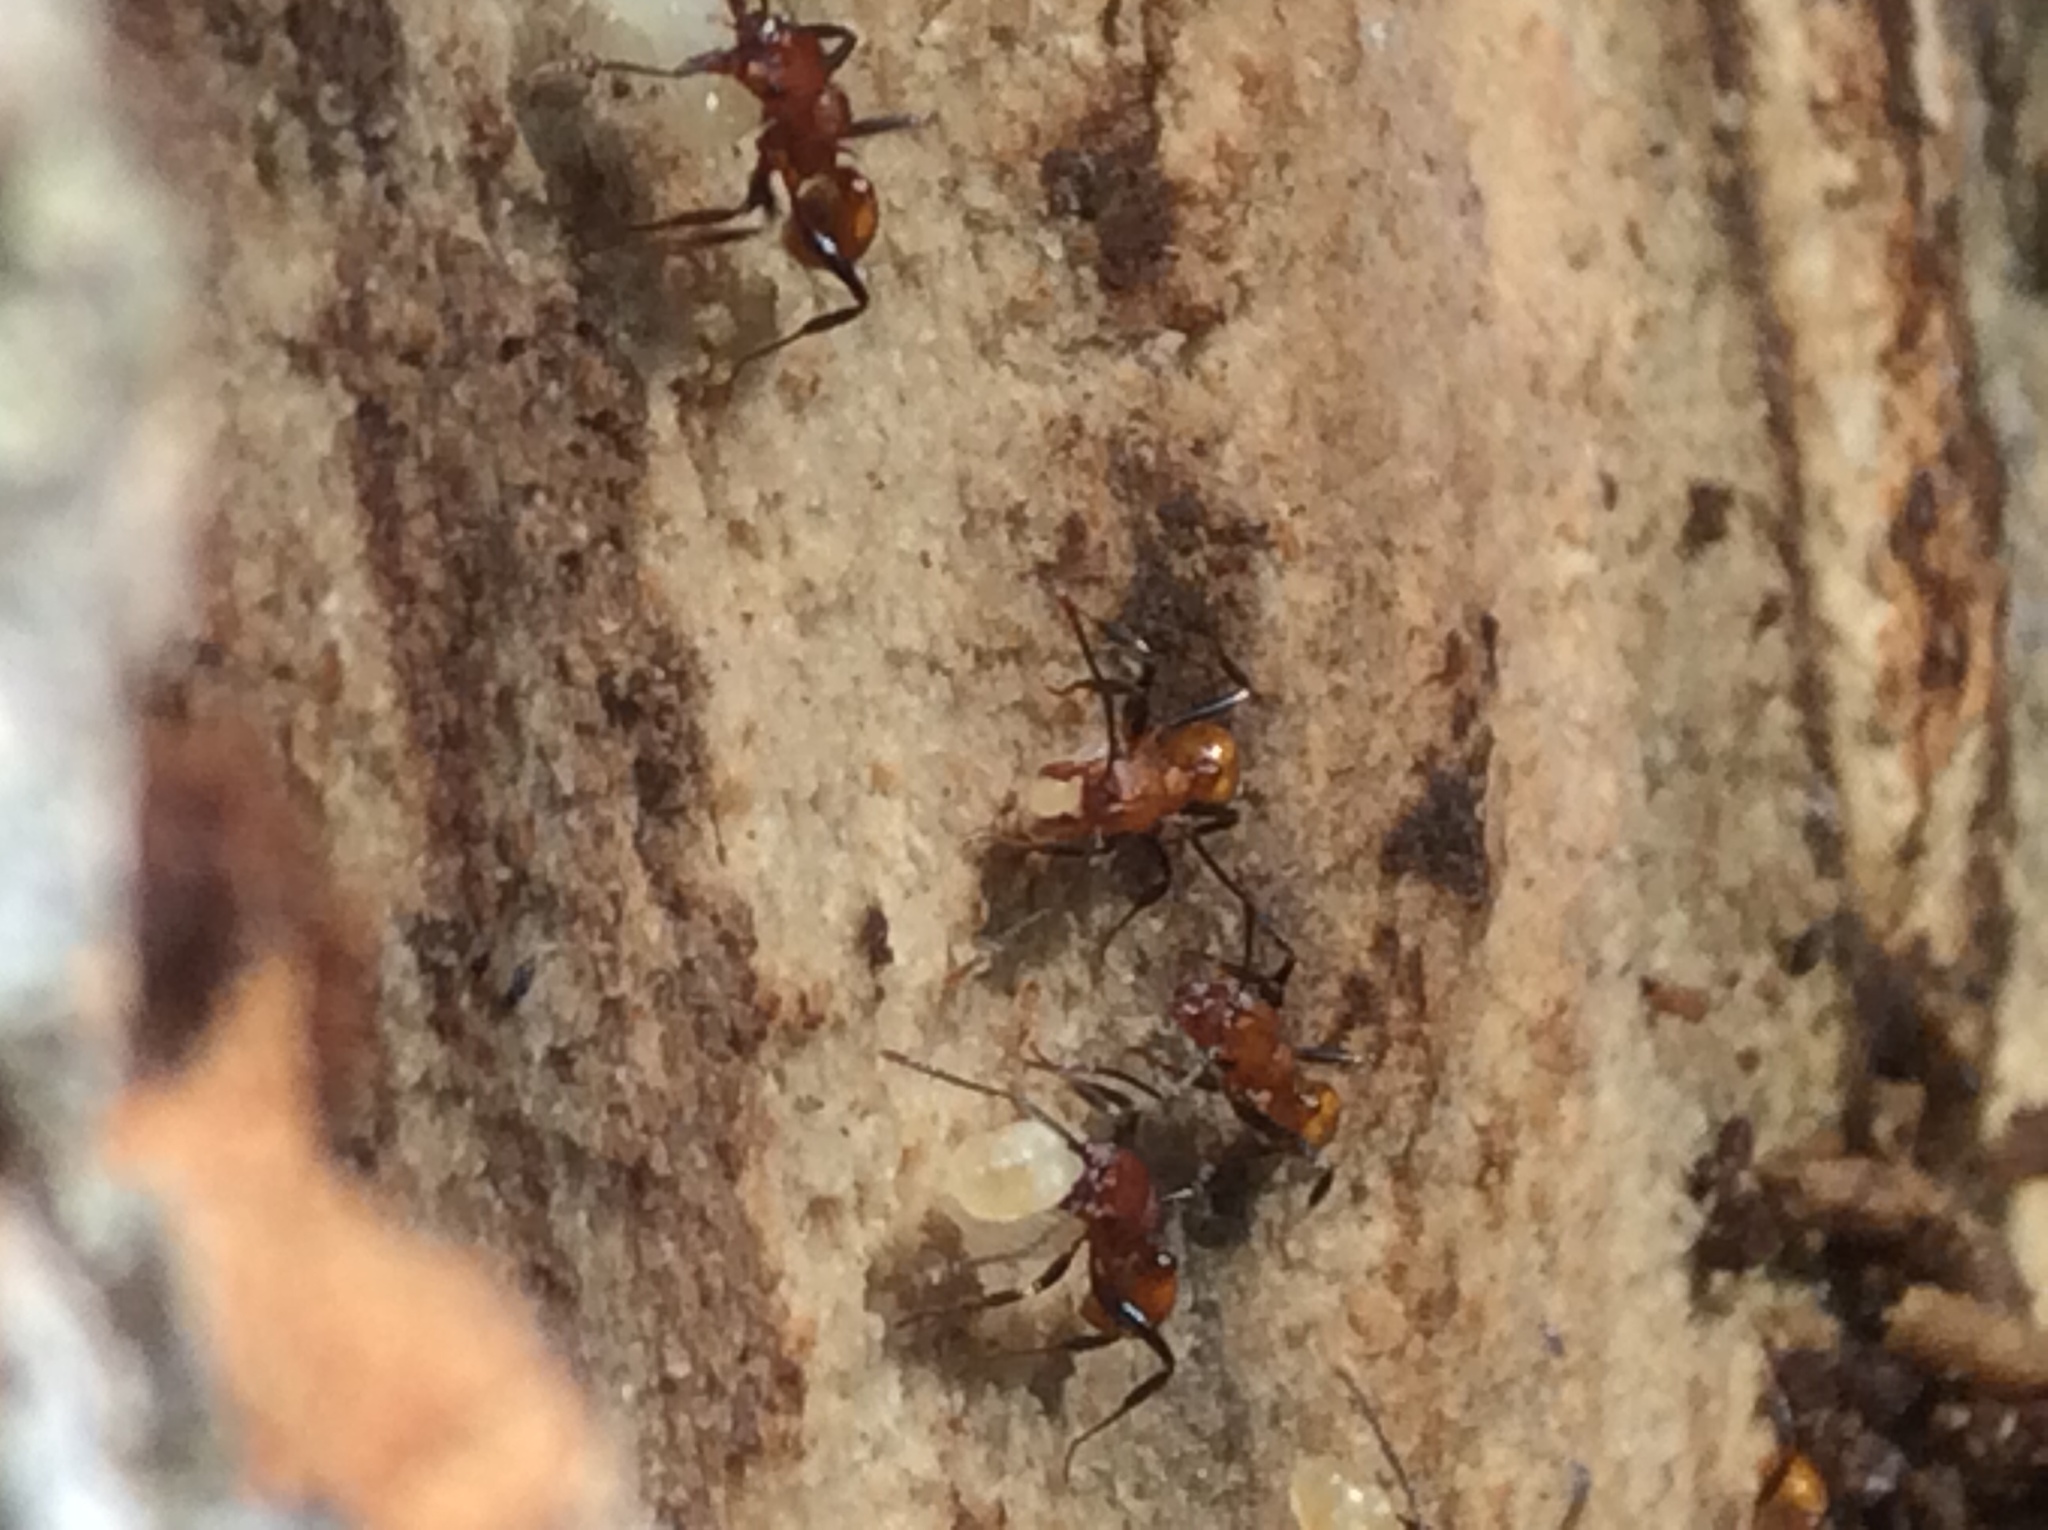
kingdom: Animalia
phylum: Arthropoda
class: Insecta
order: Hymenoptera
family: Formicidae
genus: Aphaenogaster
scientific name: Aphaenogaster tennesseensis
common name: Tennessee thread-waisted ant
